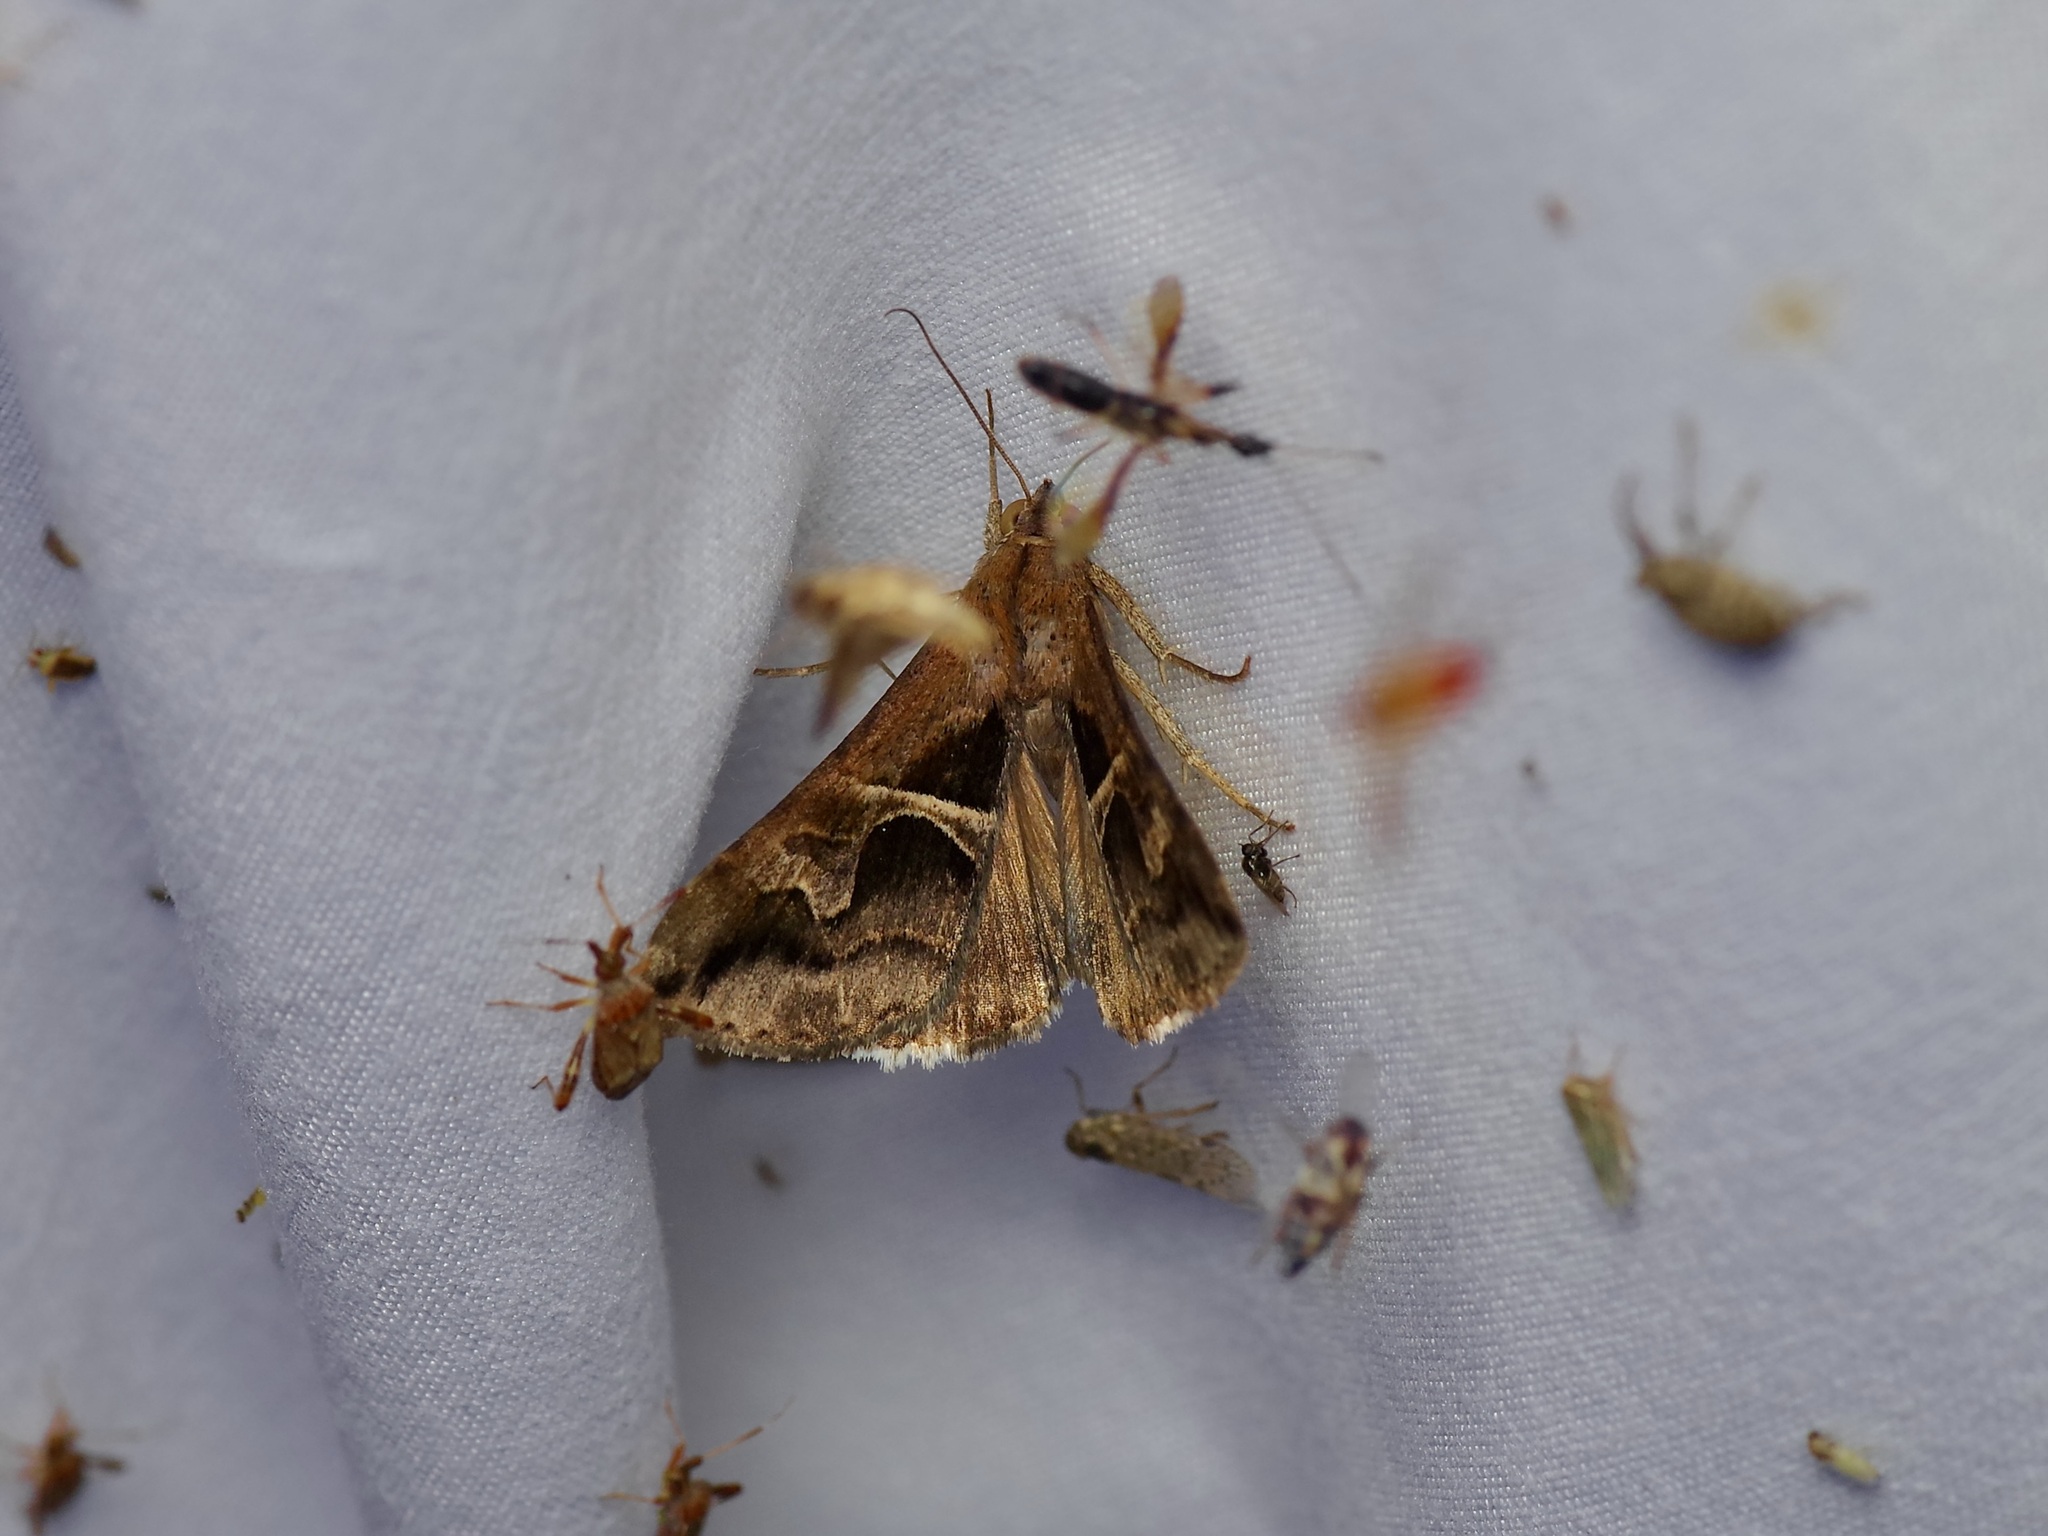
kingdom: Animalia
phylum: Arthropoda
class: Insecta
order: Lepidoptera
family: Erebidae
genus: Melipotis
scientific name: Melipotis cellaris
